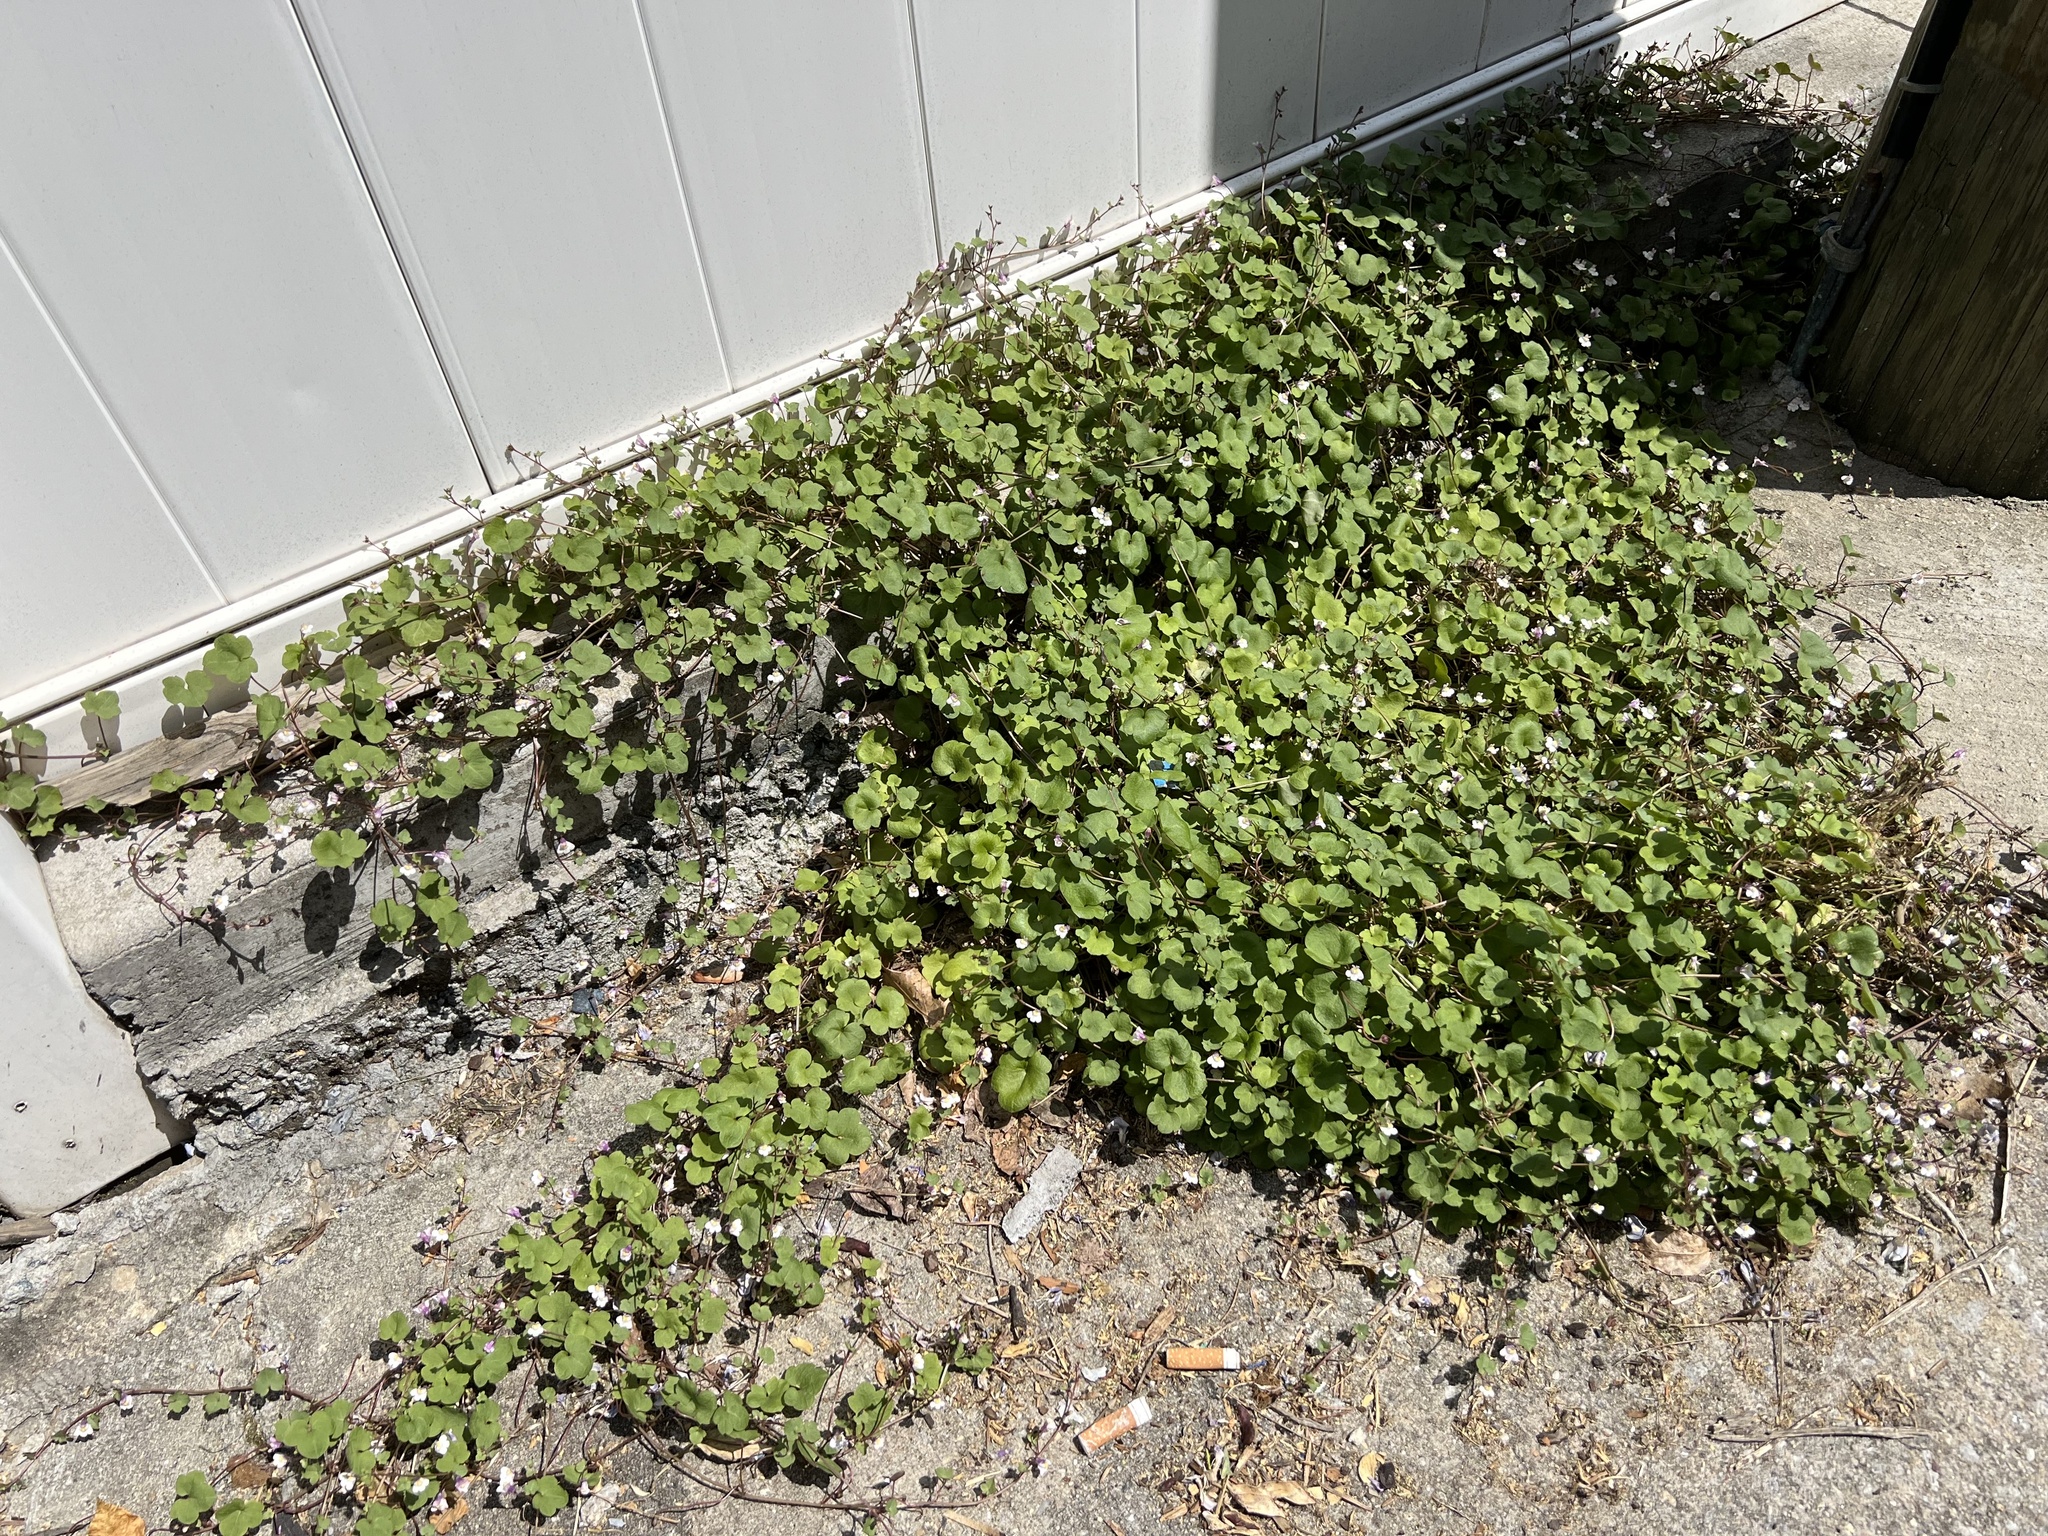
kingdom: Plantae
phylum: Tracheophyta
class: Magnoliopsida
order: Lamiales
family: Plantaginaceae
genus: Cymbalaria
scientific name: Cymbalaria muralis
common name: Ivy-leaved toadflax
